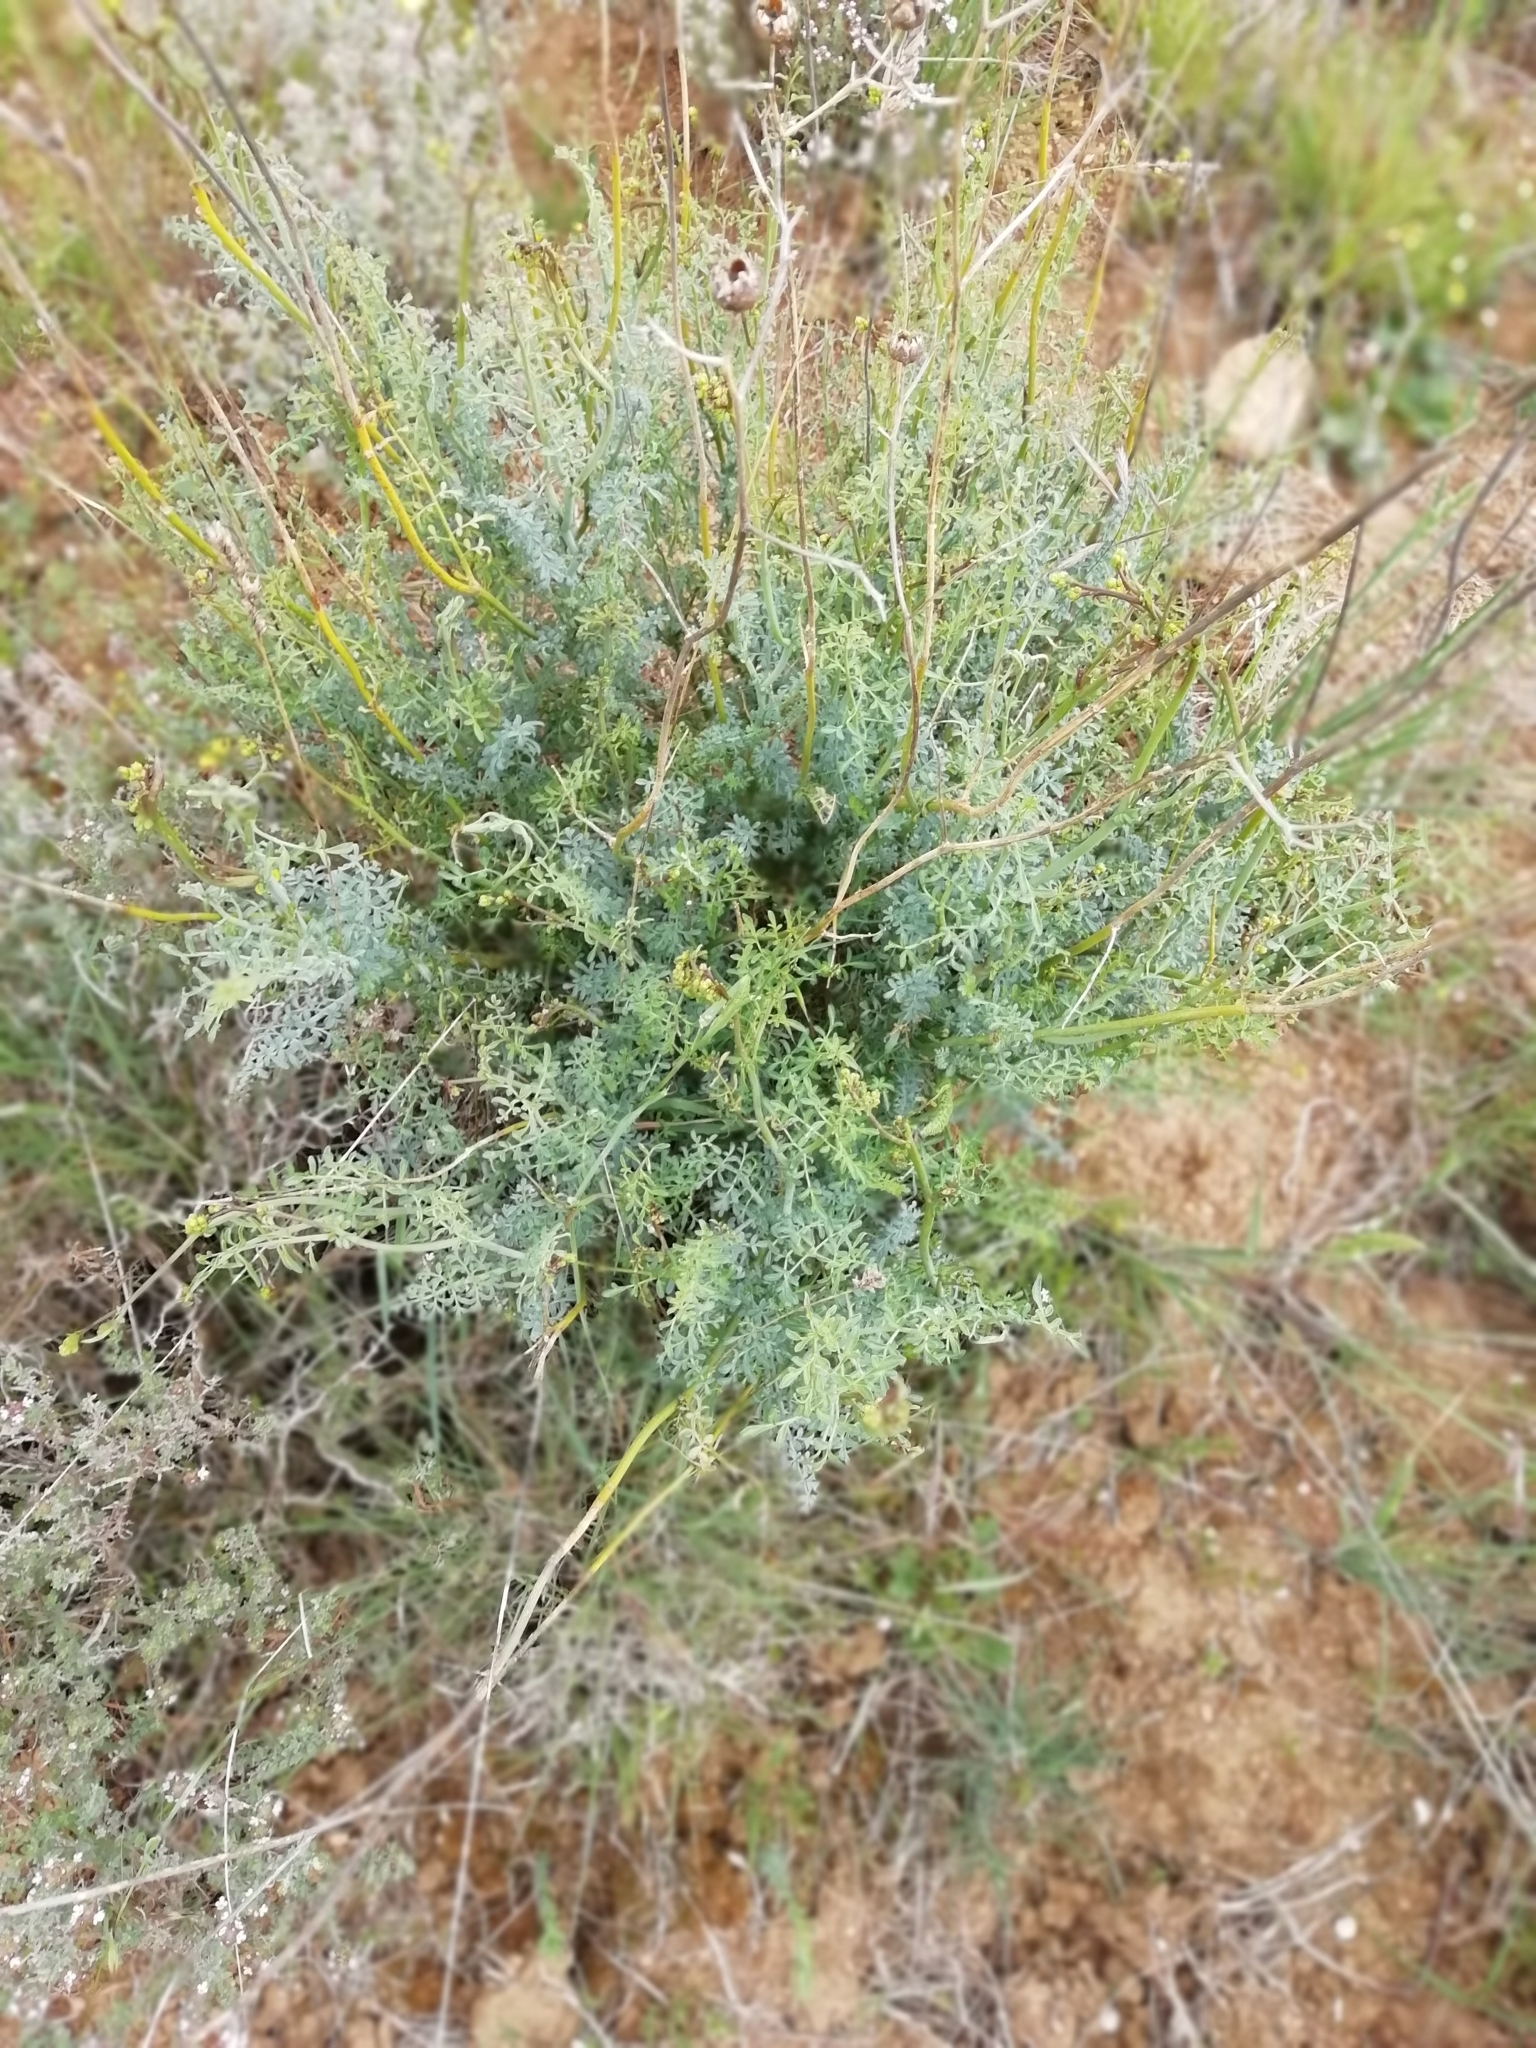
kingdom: Plantae
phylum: Tracheophyta
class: Magnoliopsida
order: Sapindales
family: Rutaceae
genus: Ruta
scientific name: Ruta angustifolia
